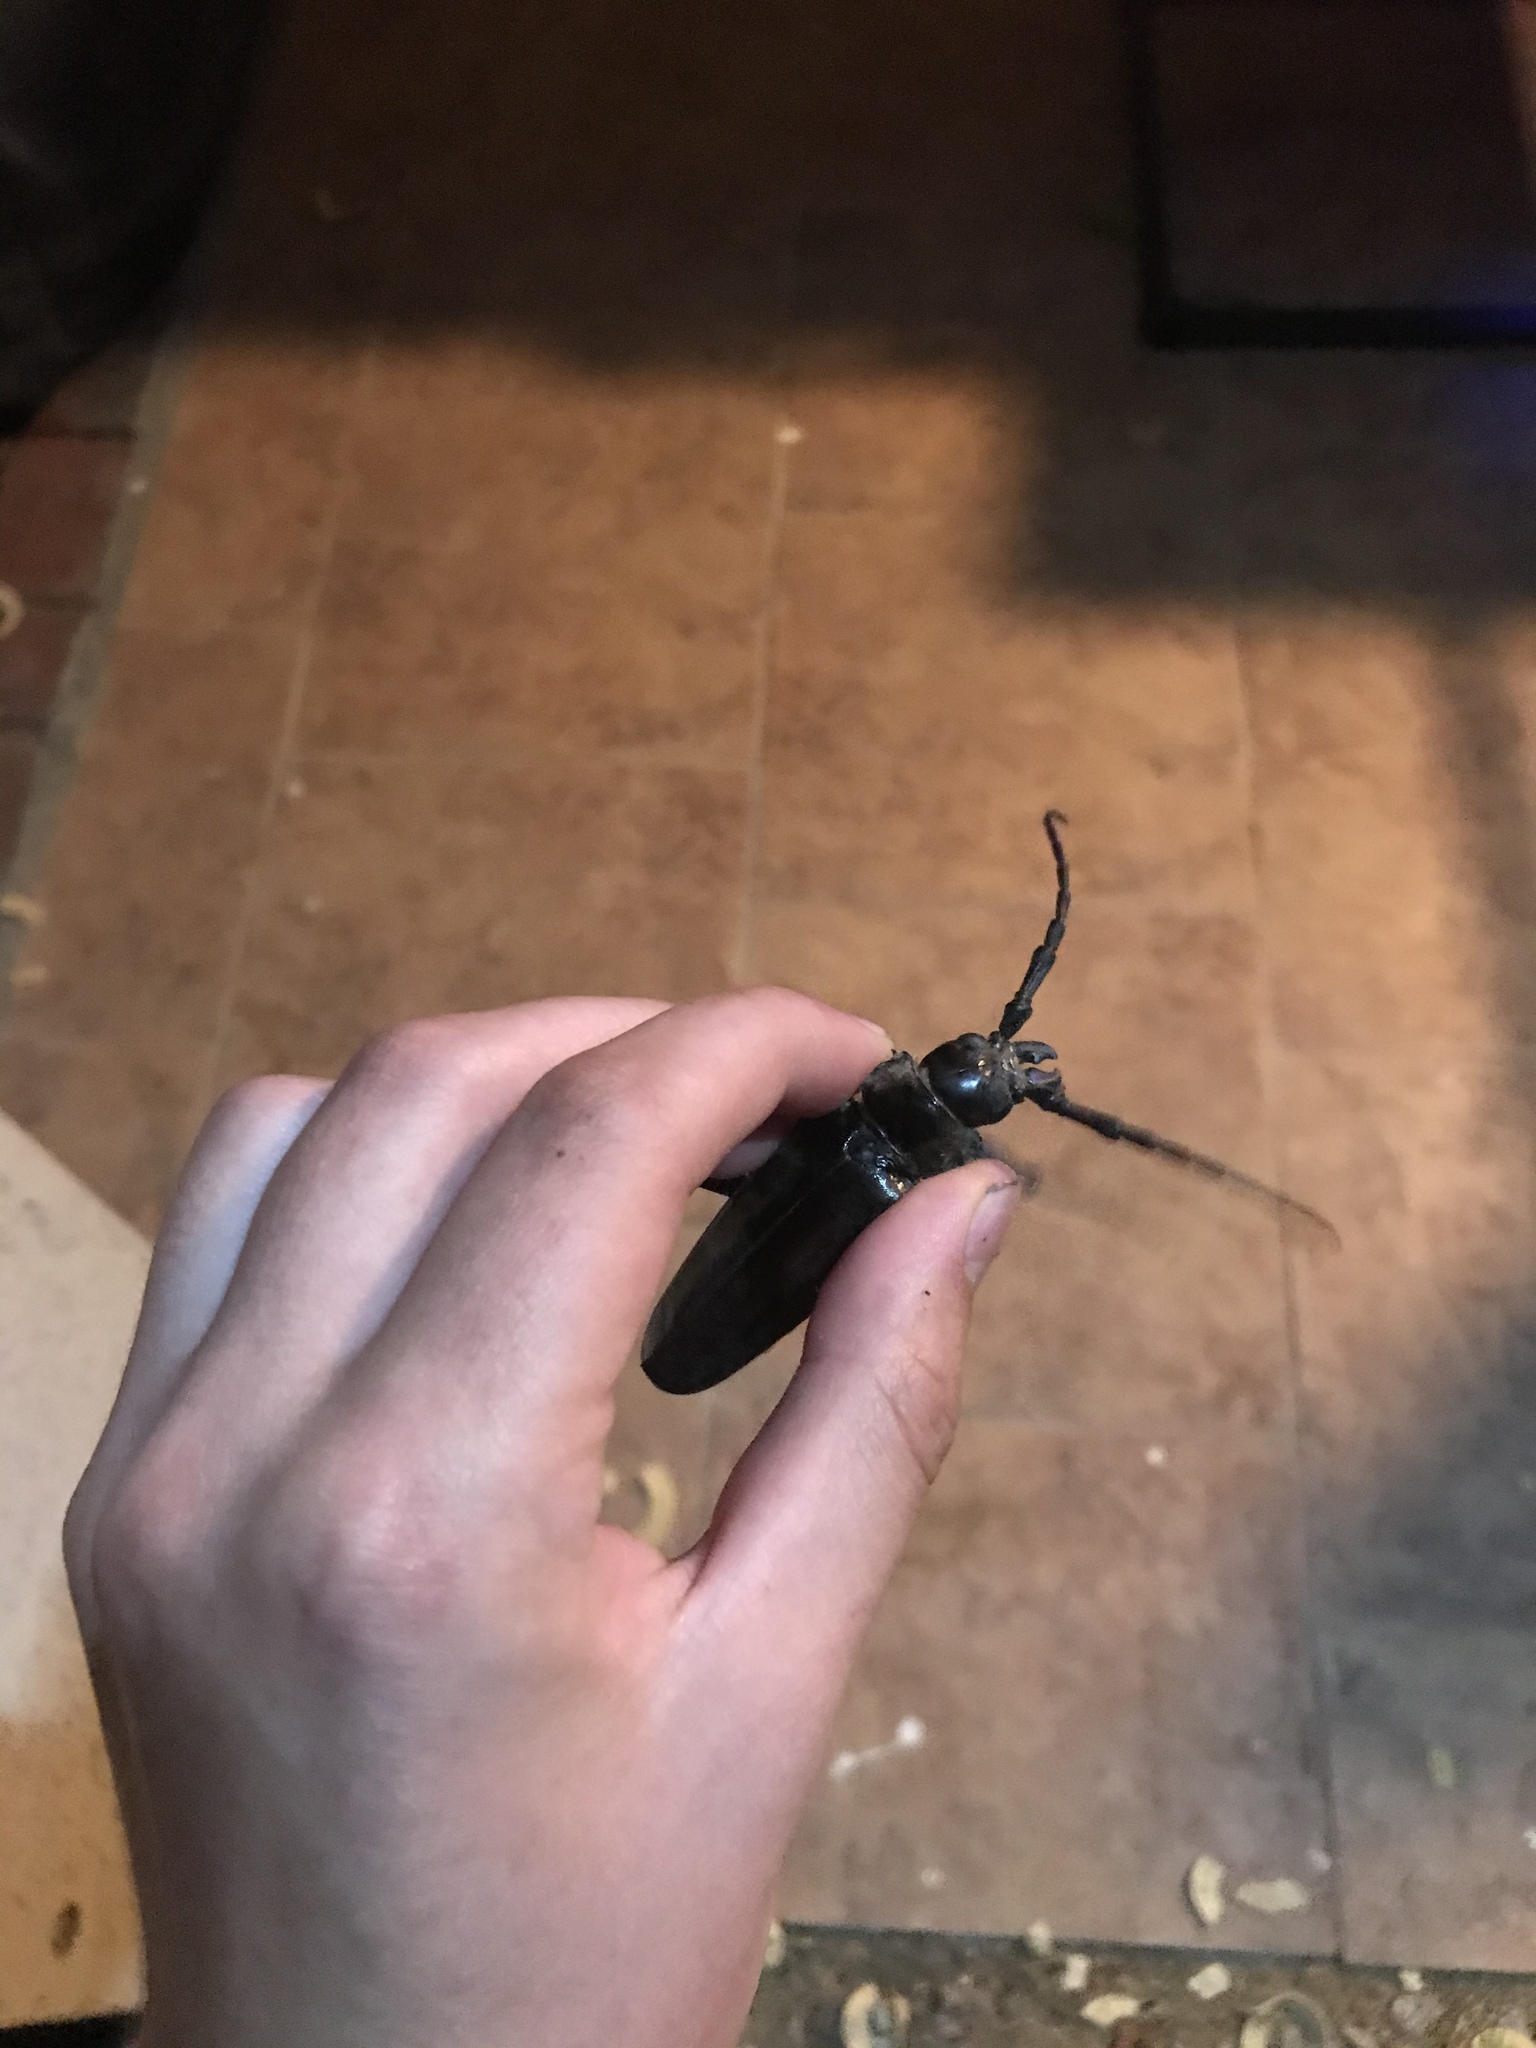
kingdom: Animalia
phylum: Arthropoda
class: Insecta
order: Coleoptera
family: Cerambycidae
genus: Derobrachus
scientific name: Derobrachus hovorei
